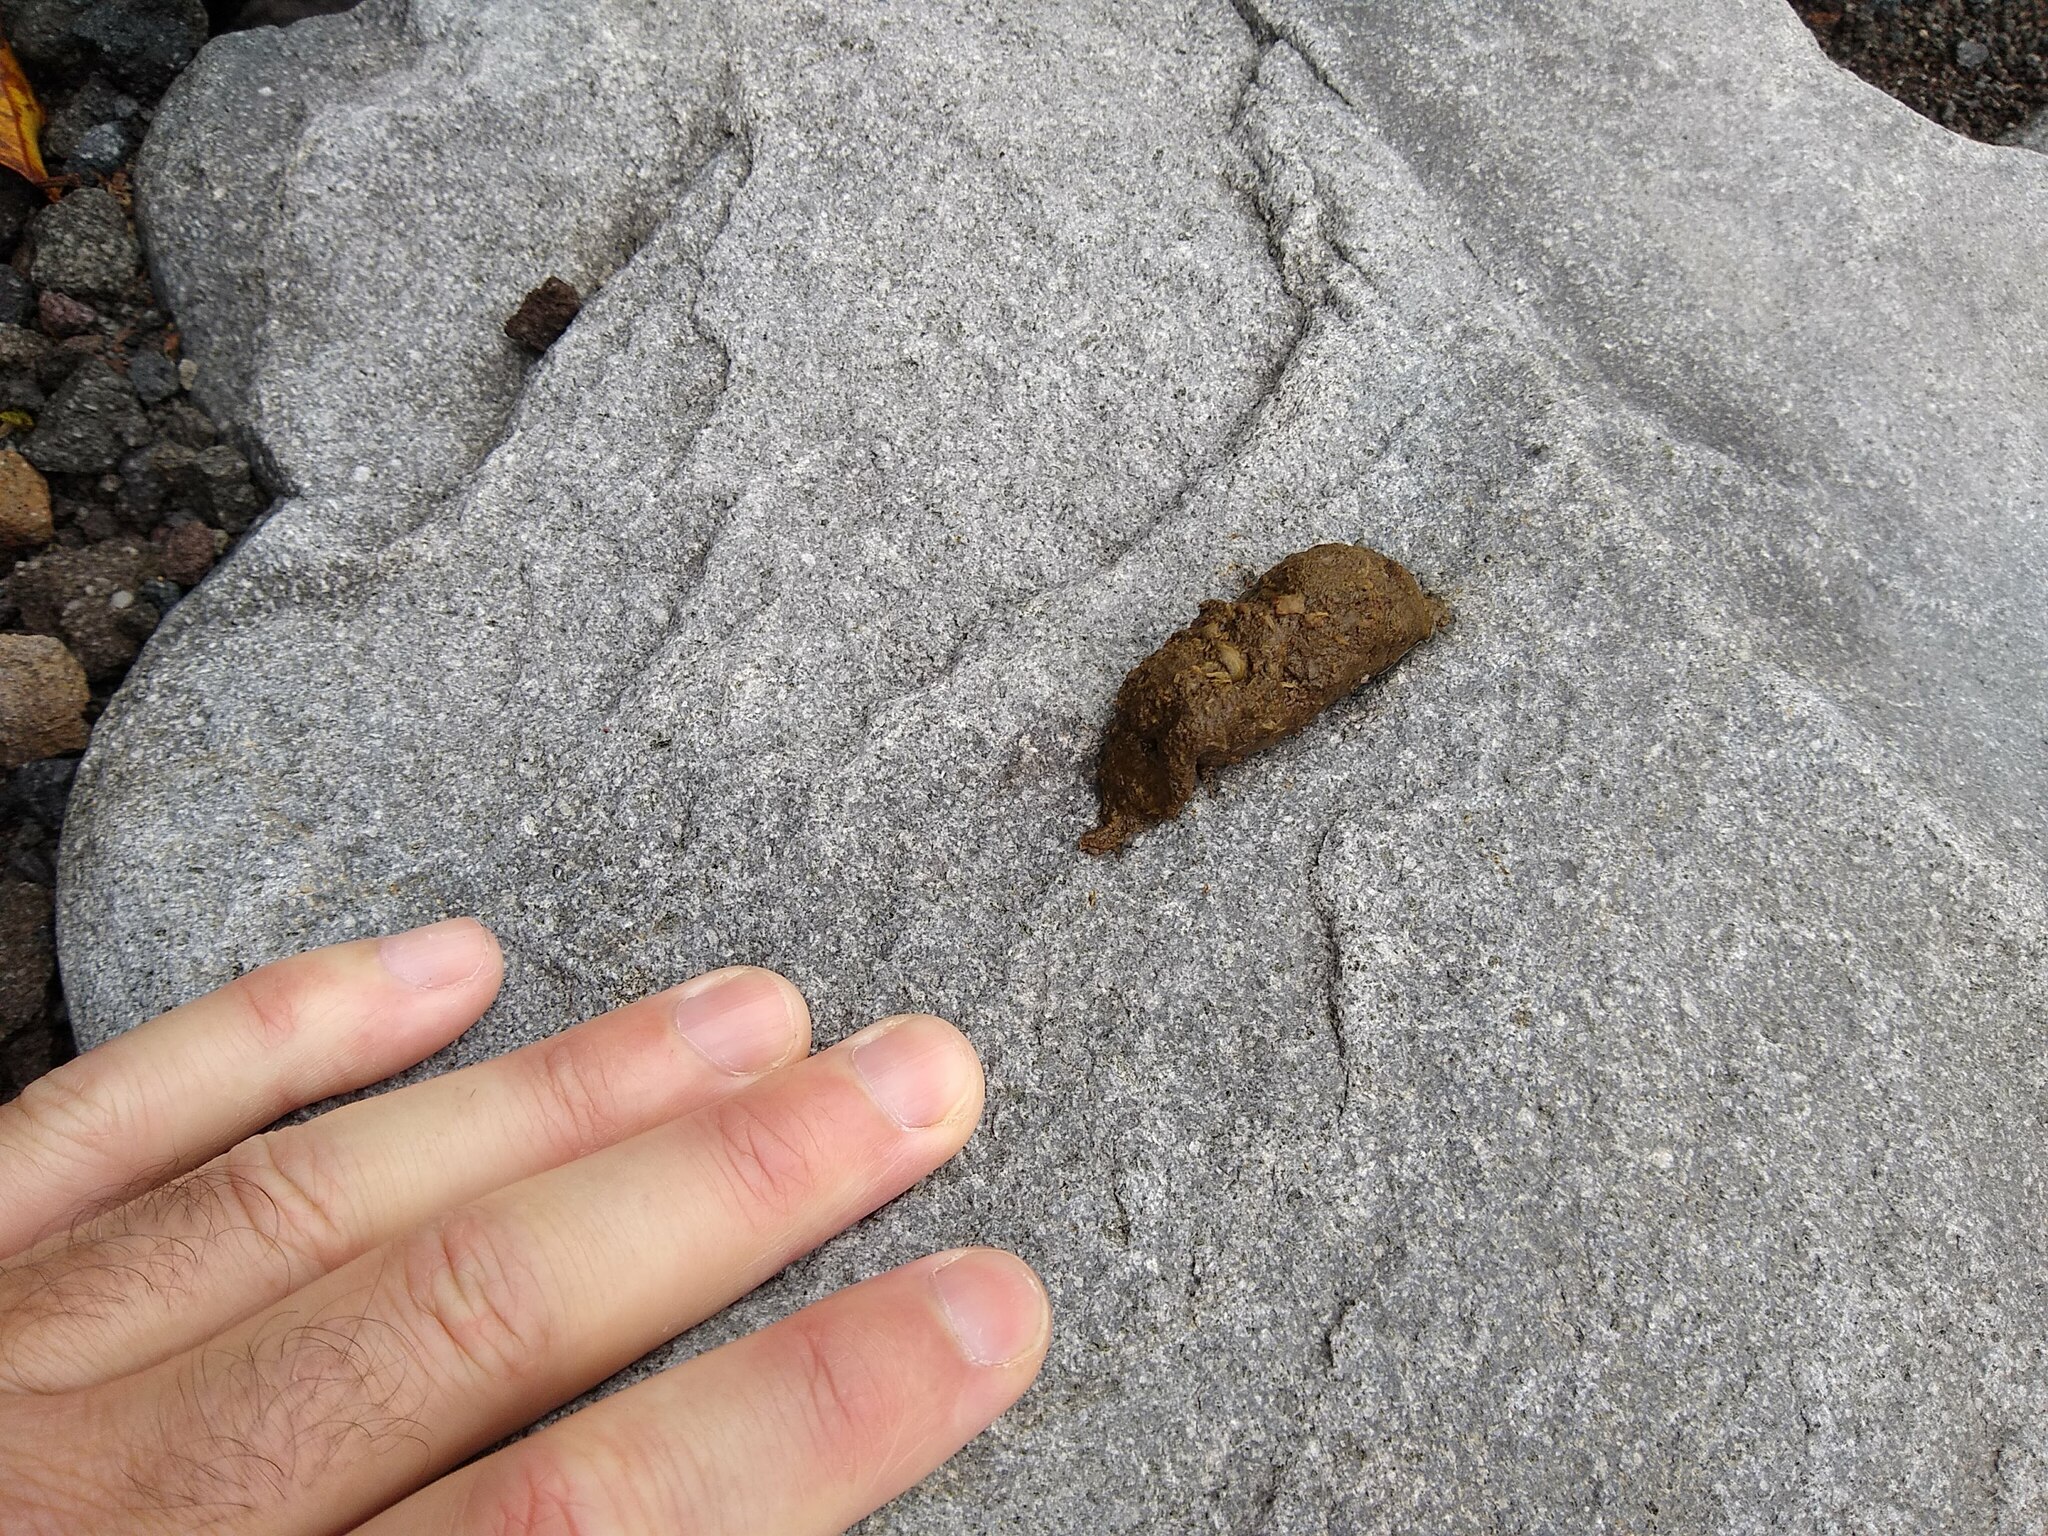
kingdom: Animalia
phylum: Chordata
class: Mammalia
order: Diprotodontia
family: Phalangeridae
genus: Trichosurus
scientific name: Trichosurus vulpecula
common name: Common brushtail
